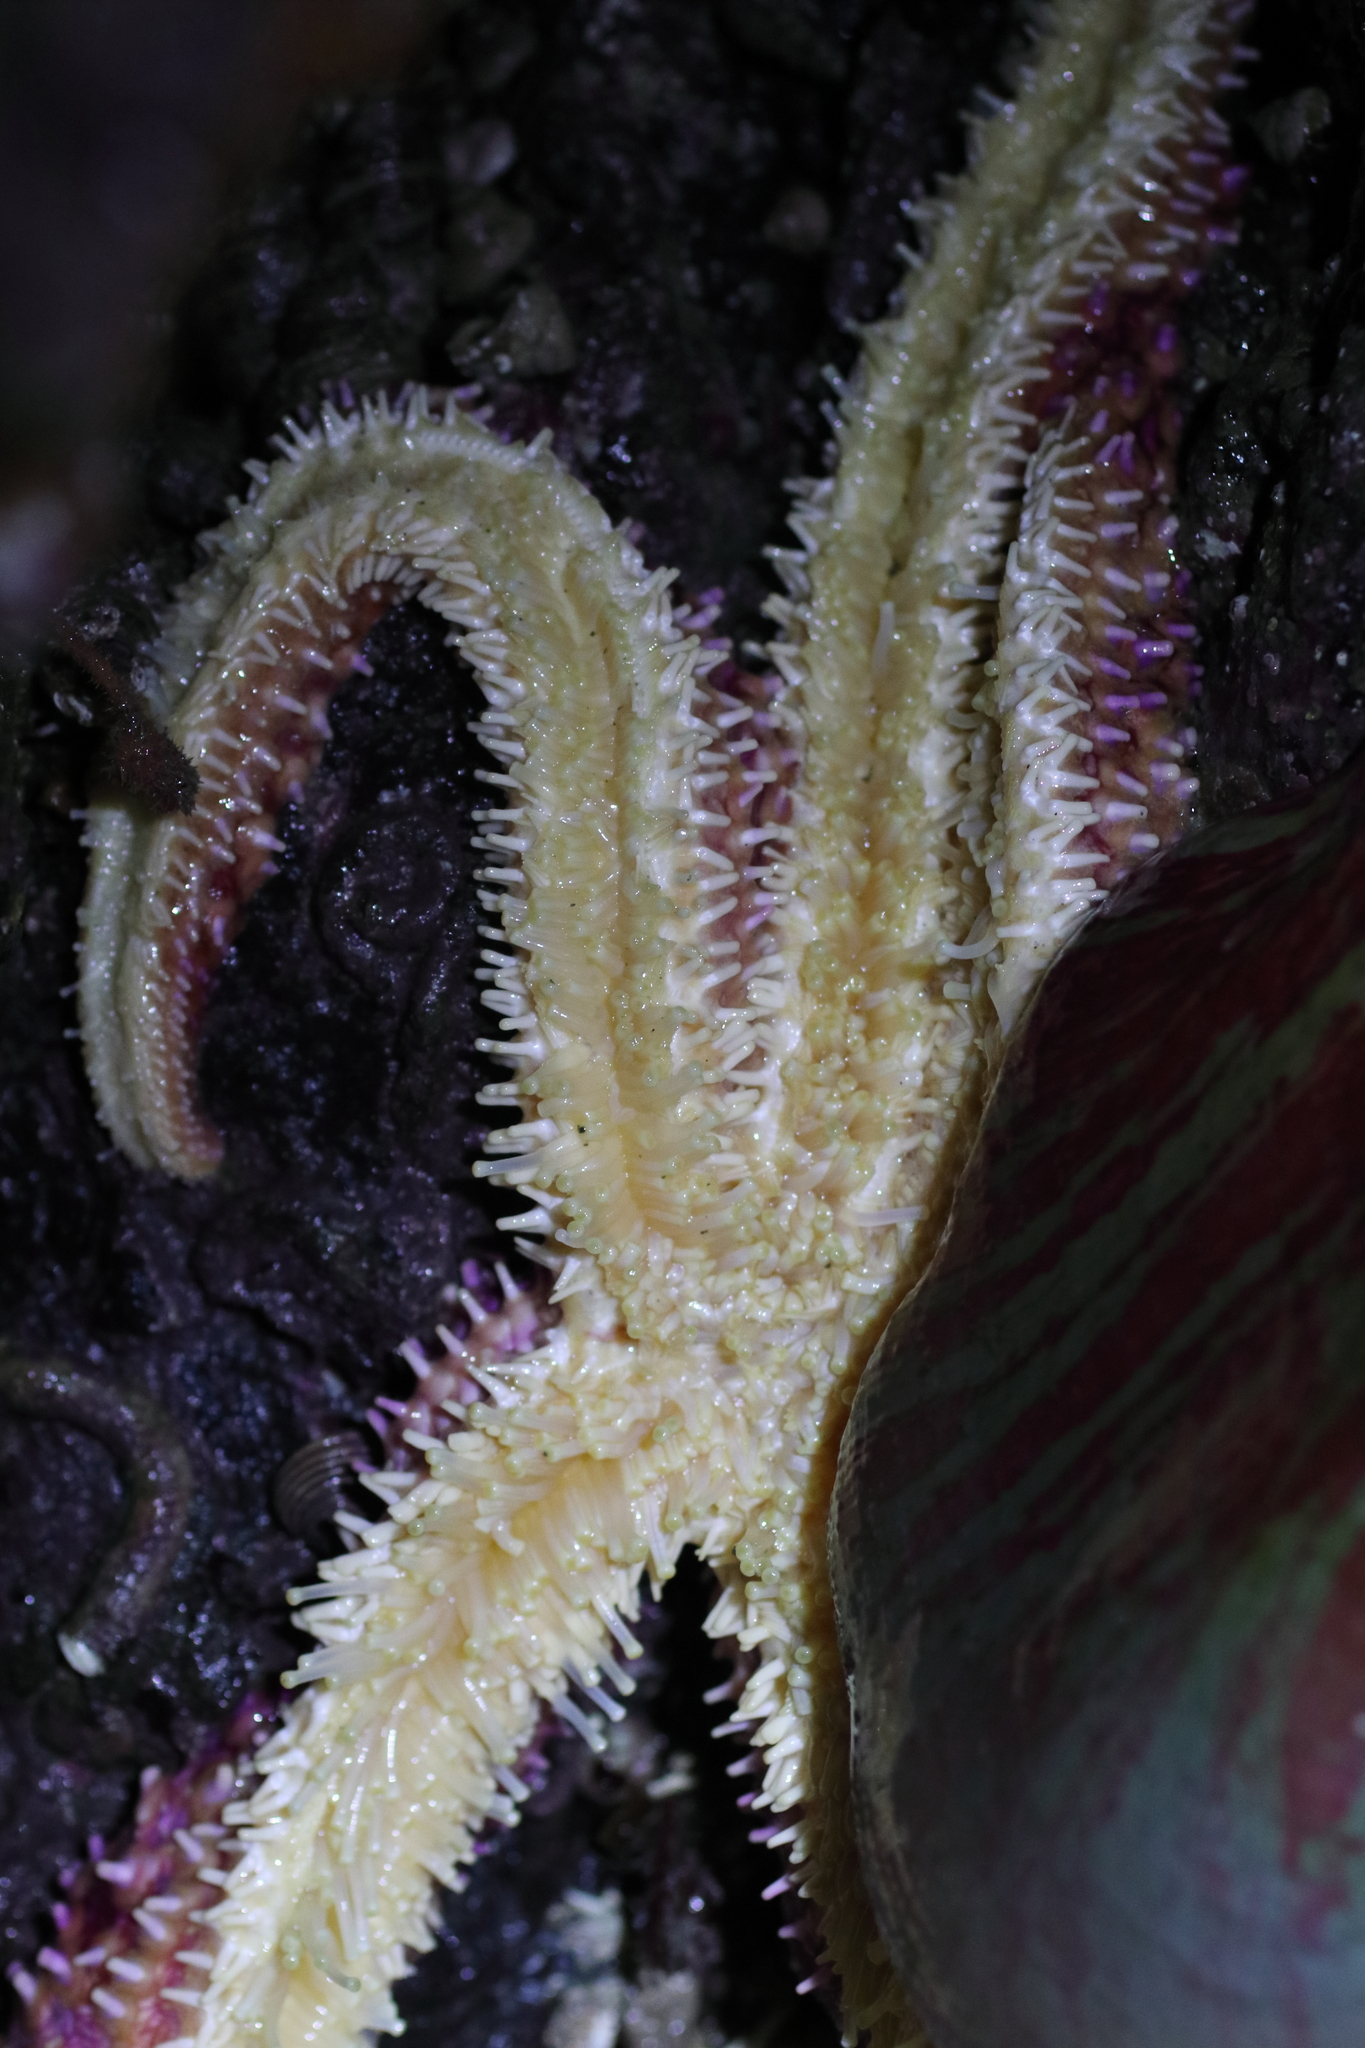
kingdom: Animalia
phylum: Echinodermata
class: Asteroidea
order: Forcipulatida
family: Asteriidae
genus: Orthasterias
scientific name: Orthasterias koehleri
